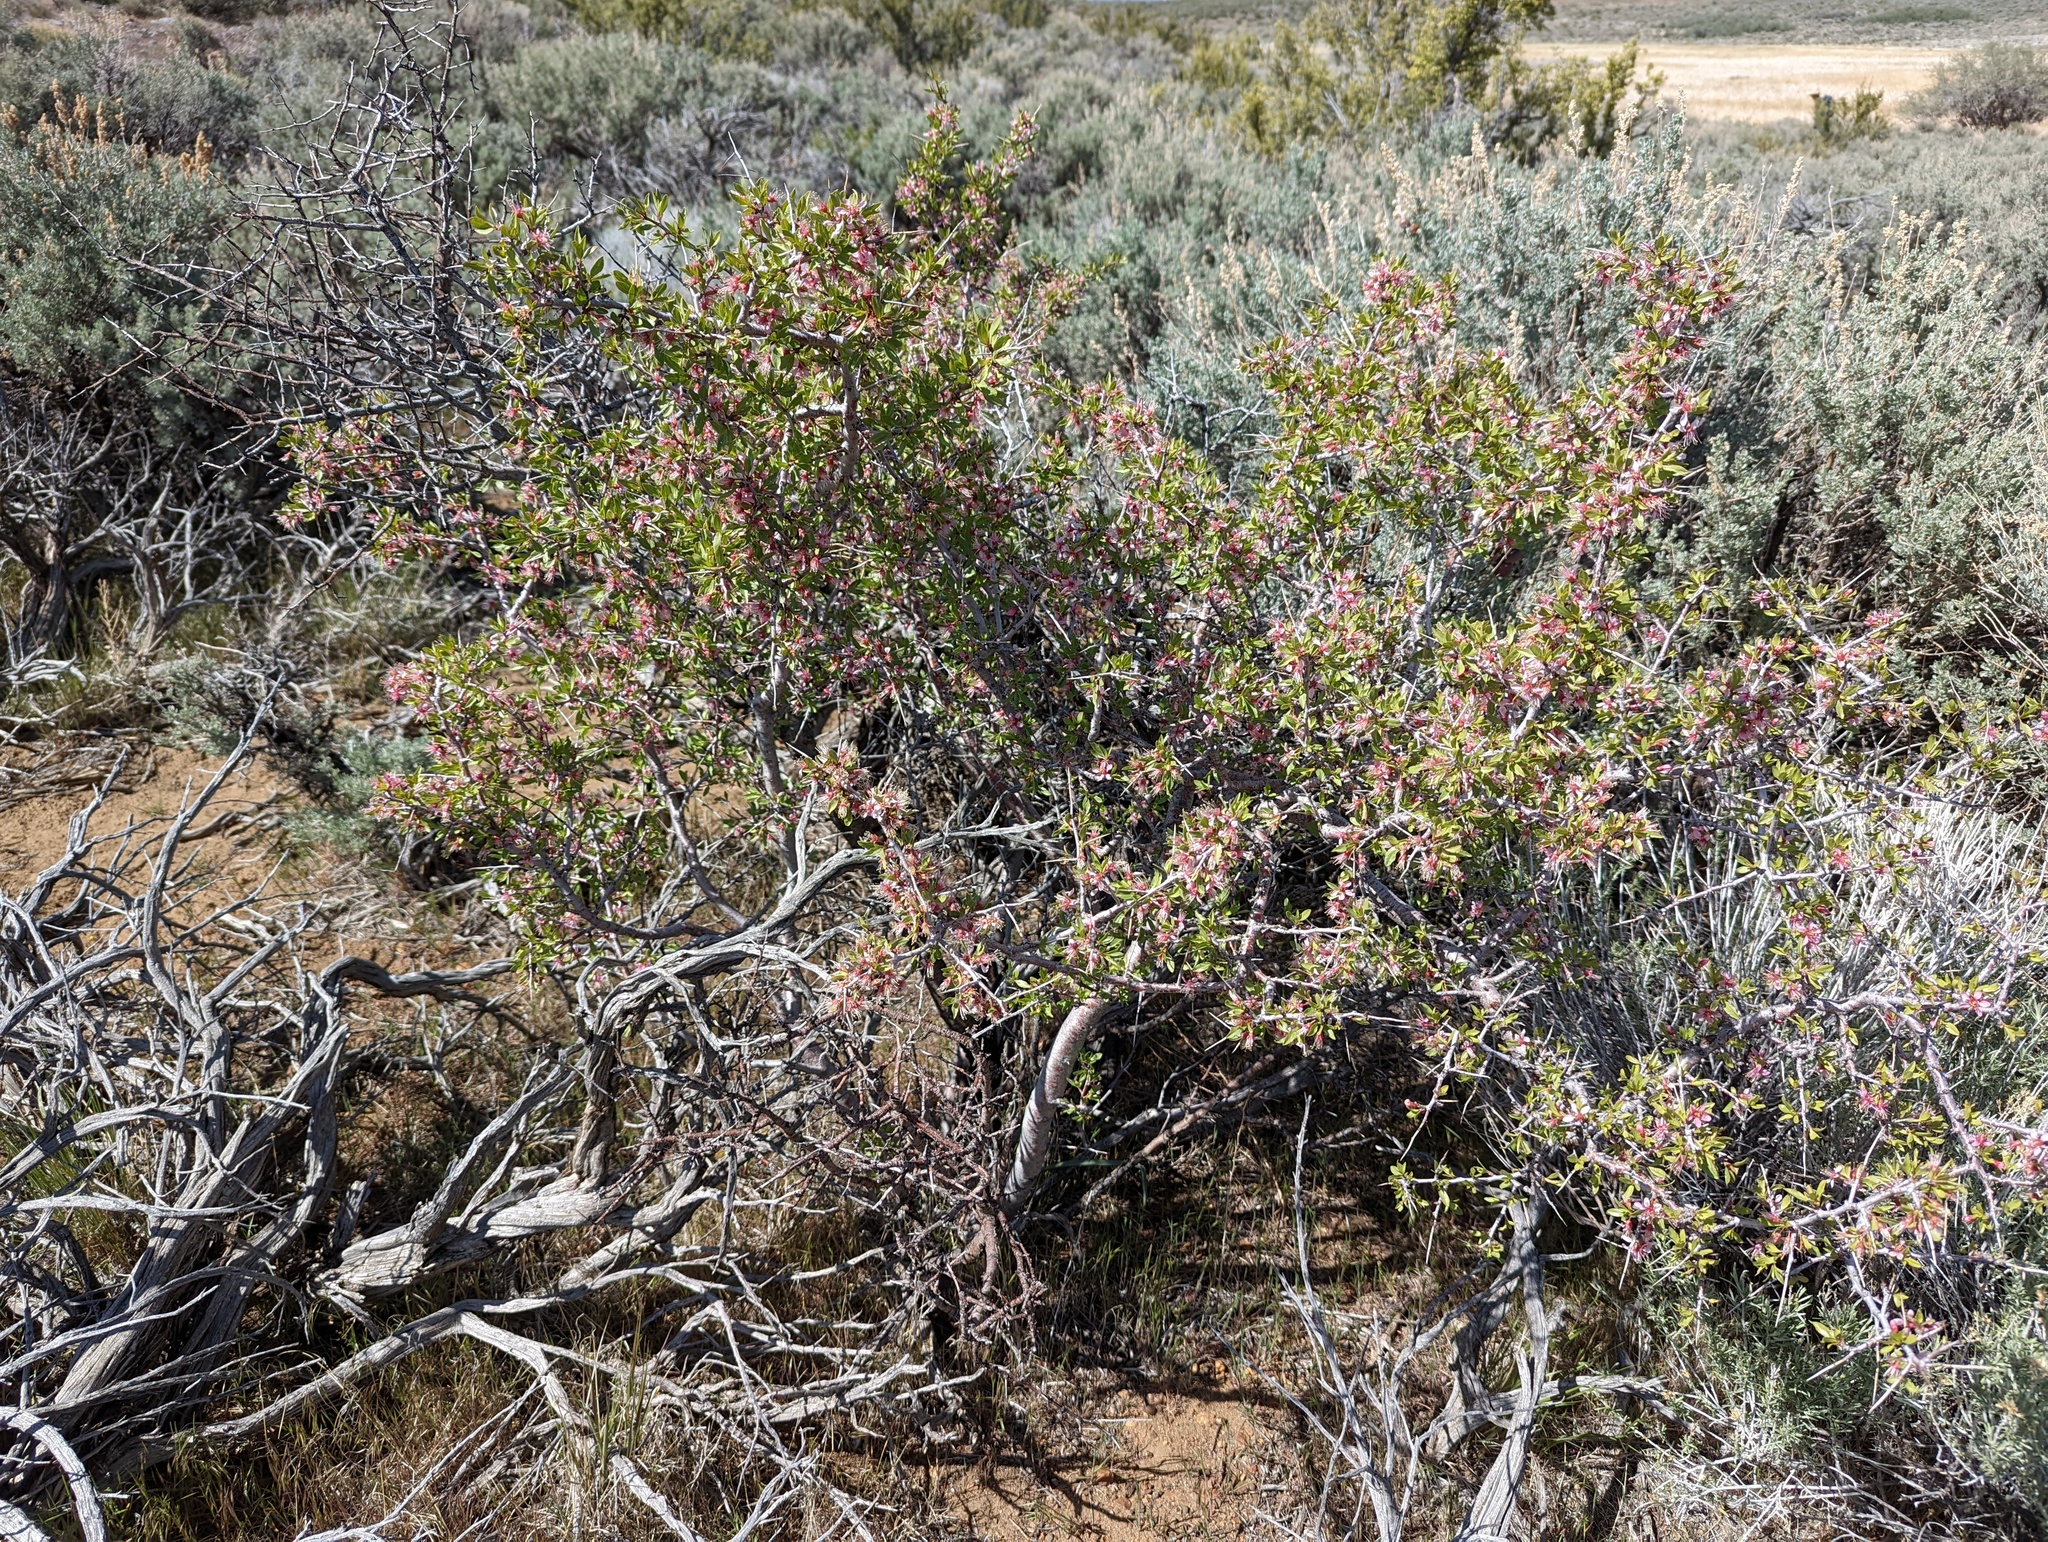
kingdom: Plantae
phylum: Tracheophyta
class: Magnoliopsida
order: Rosales
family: Rosaceae
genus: Prunus
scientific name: Prunus andersonii
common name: Desert peach
